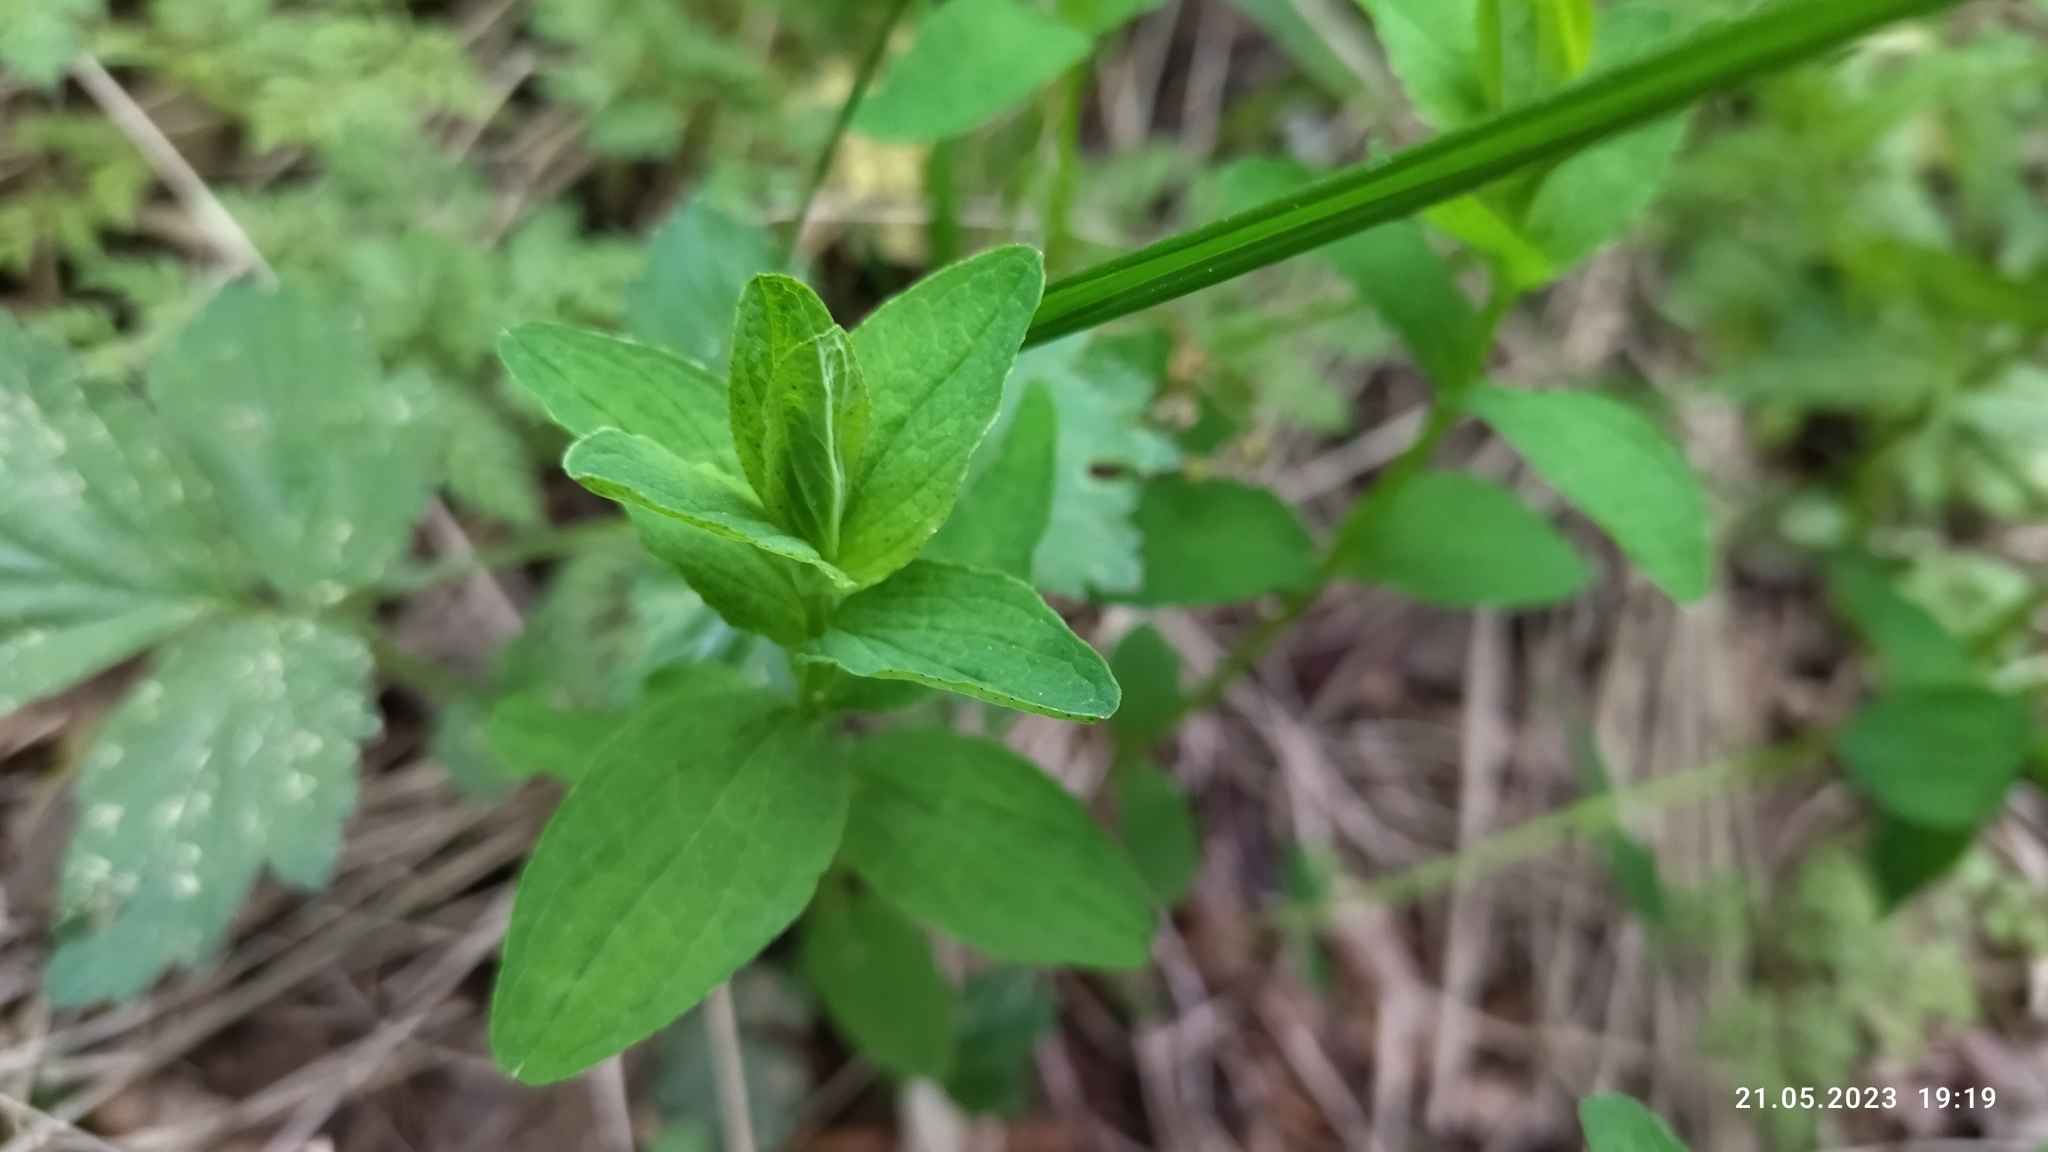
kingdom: Plantae
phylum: Tracheophyta
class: Magnoliopsida
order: Malpighiales
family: Hypericaceae
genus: Hypericum
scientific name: Hypericum maculatum
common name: Imperforate st. john's-wort
